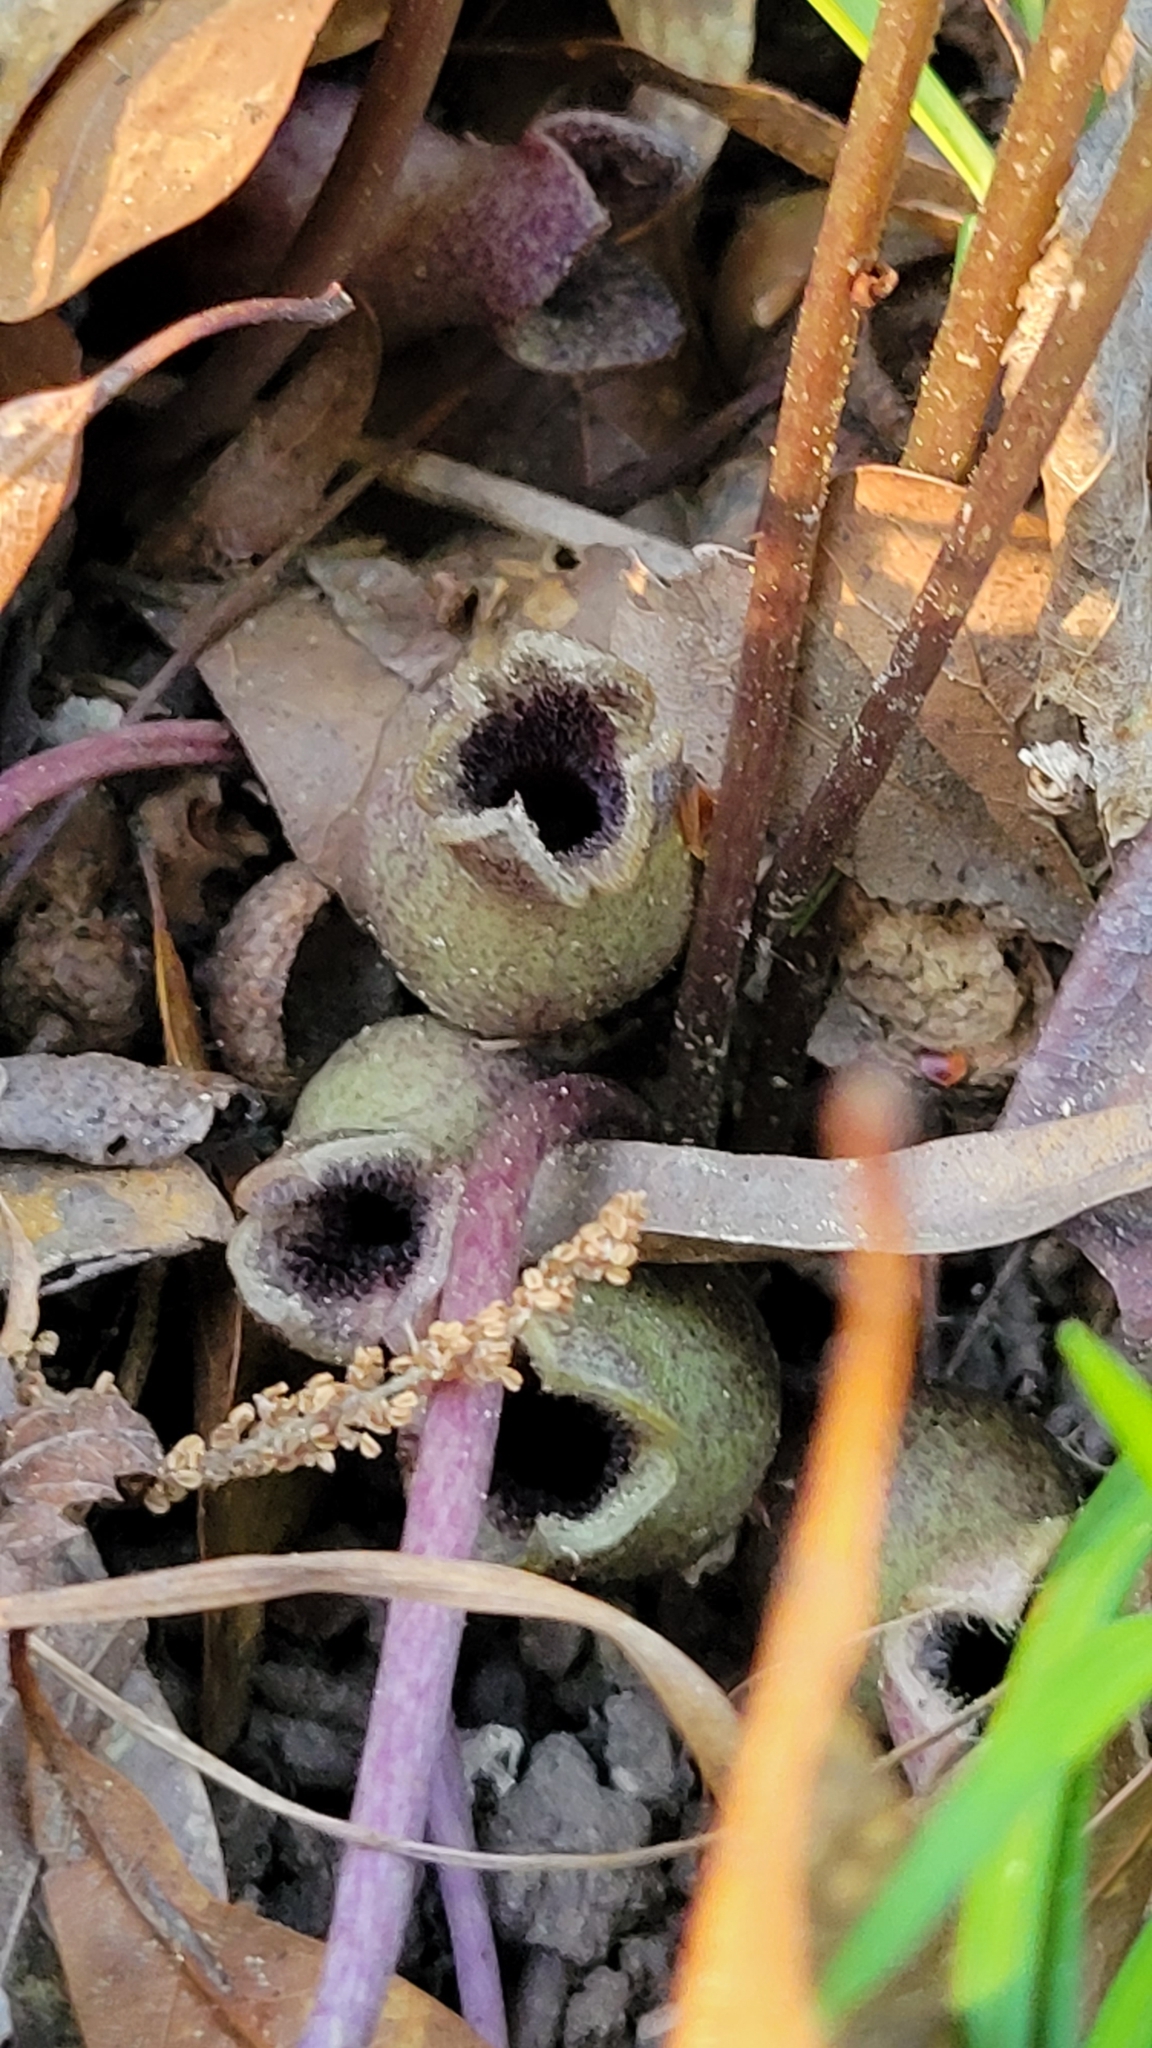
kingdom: Plantae
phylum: Tracheophyta
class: Magnoliopsida
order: Piperales
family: Aristolochiaceae
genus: Hexastylis
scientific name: Hexastylis arifolia
